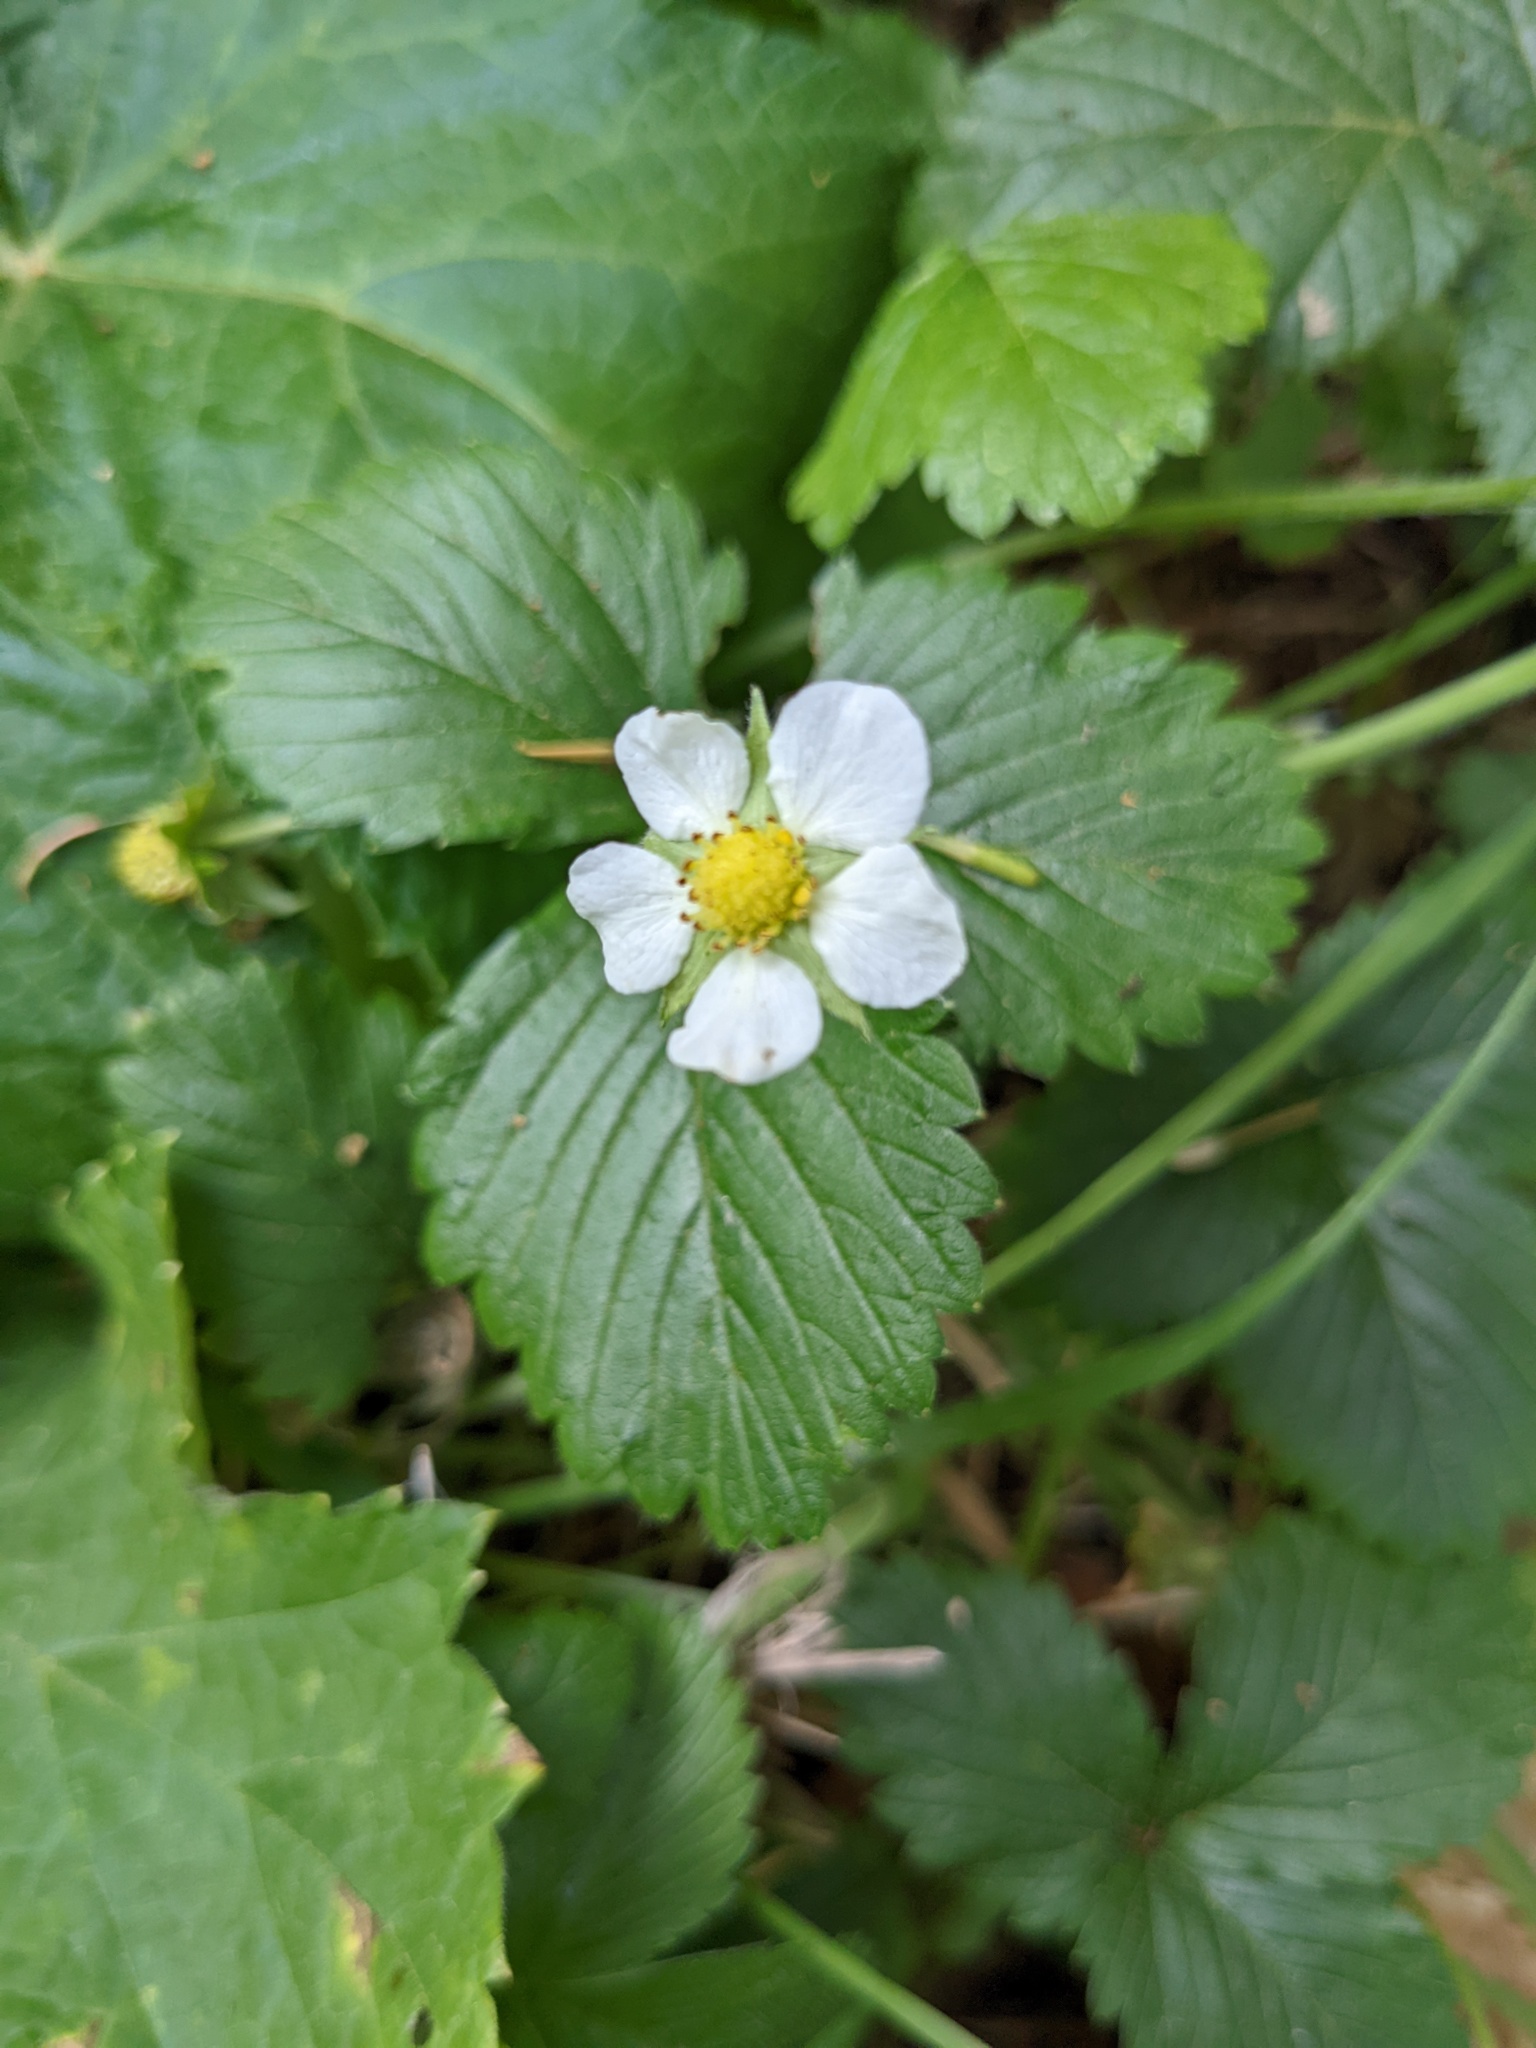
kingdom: Plantae
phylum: Tracheophyta
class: Magnoliopsida
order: Rosales
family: Rosaceae
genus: Fragaria
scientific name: Fragaria vesca
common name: Wild strawberry
